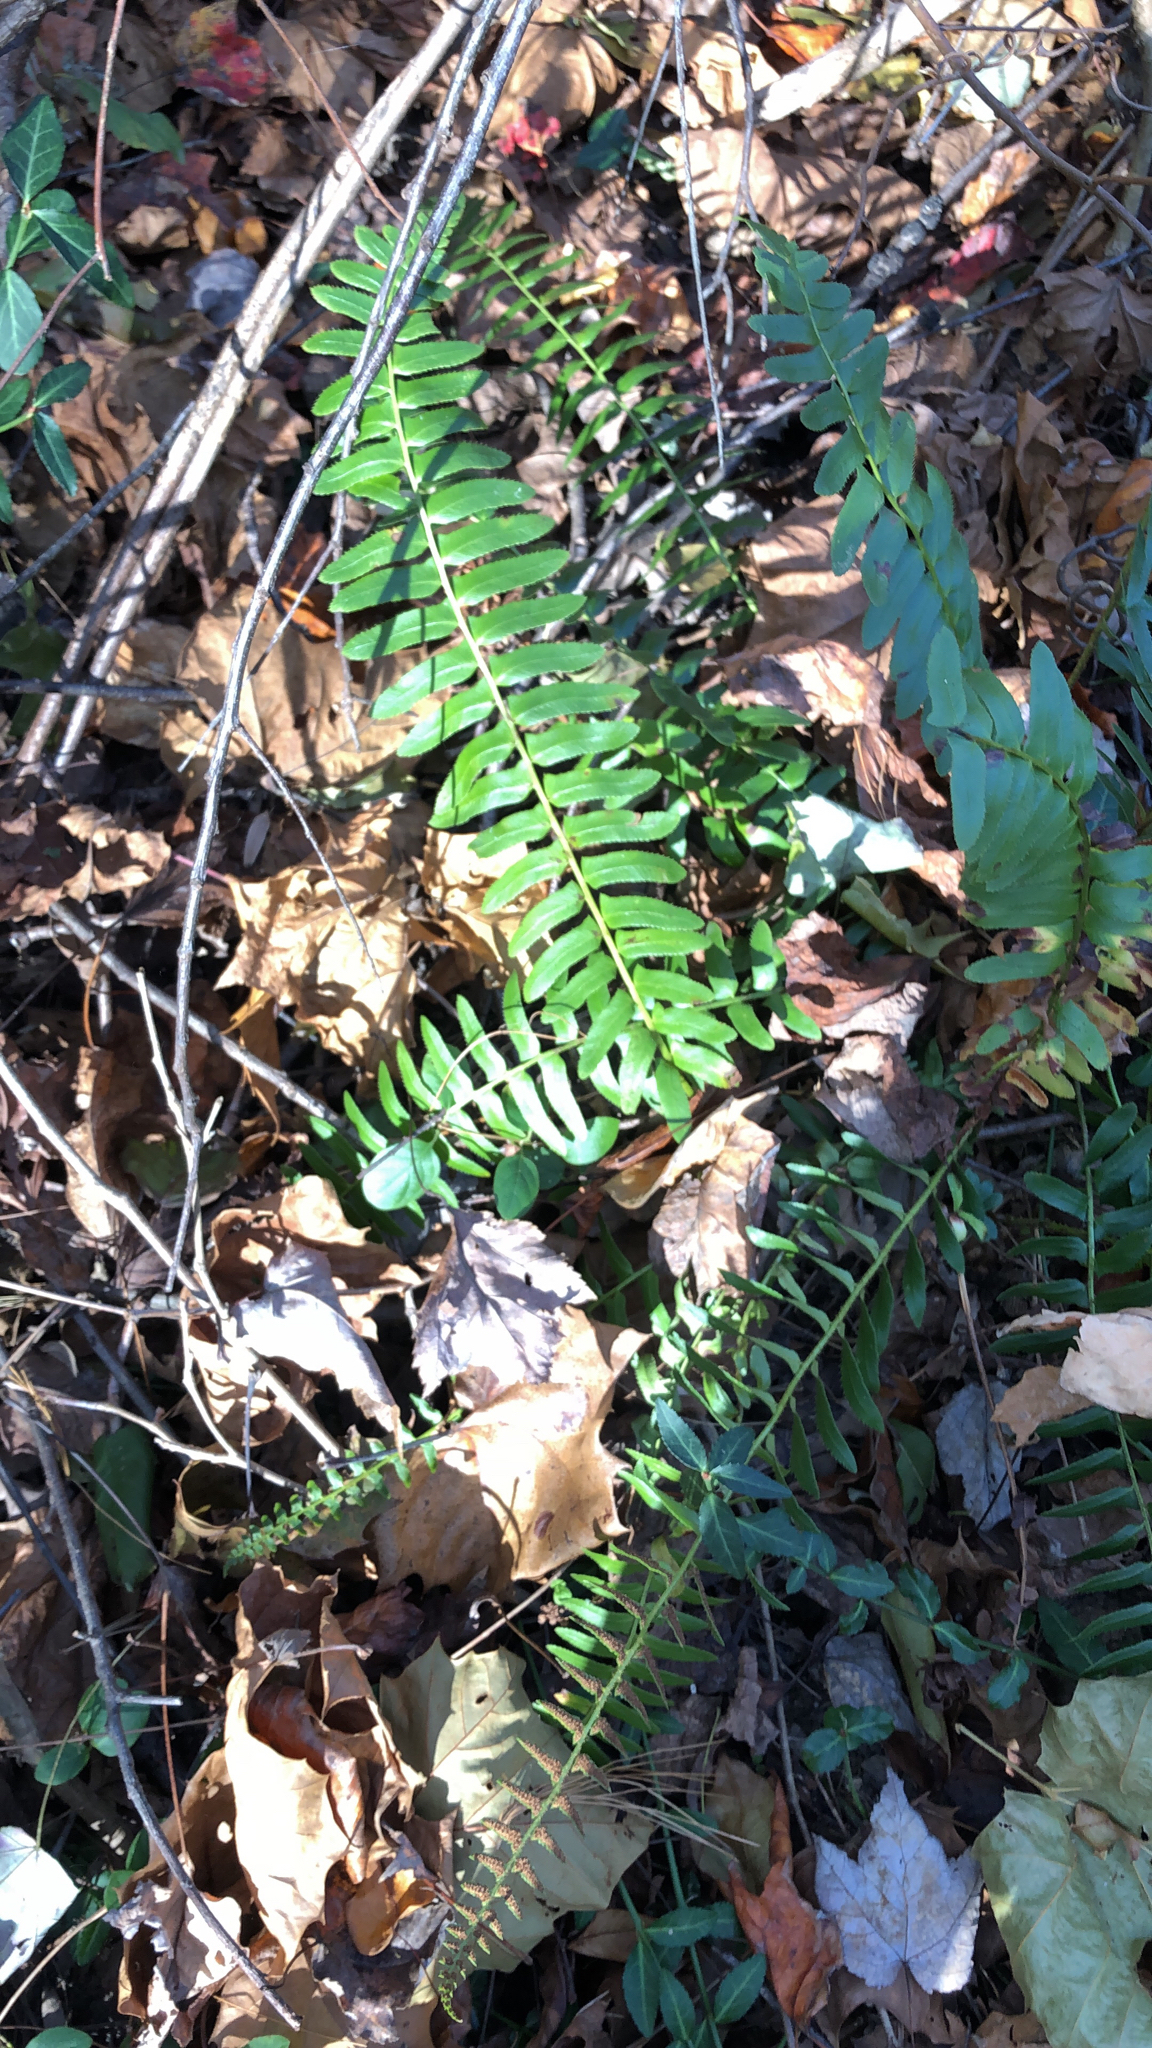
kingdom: Plantae
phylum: Tracheophyta
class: Polypodiopsida
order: Polypodiales
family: Dryopteridaceae
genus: Polystichum
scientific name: Polystichum acrostichoides
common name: Christmas fern
